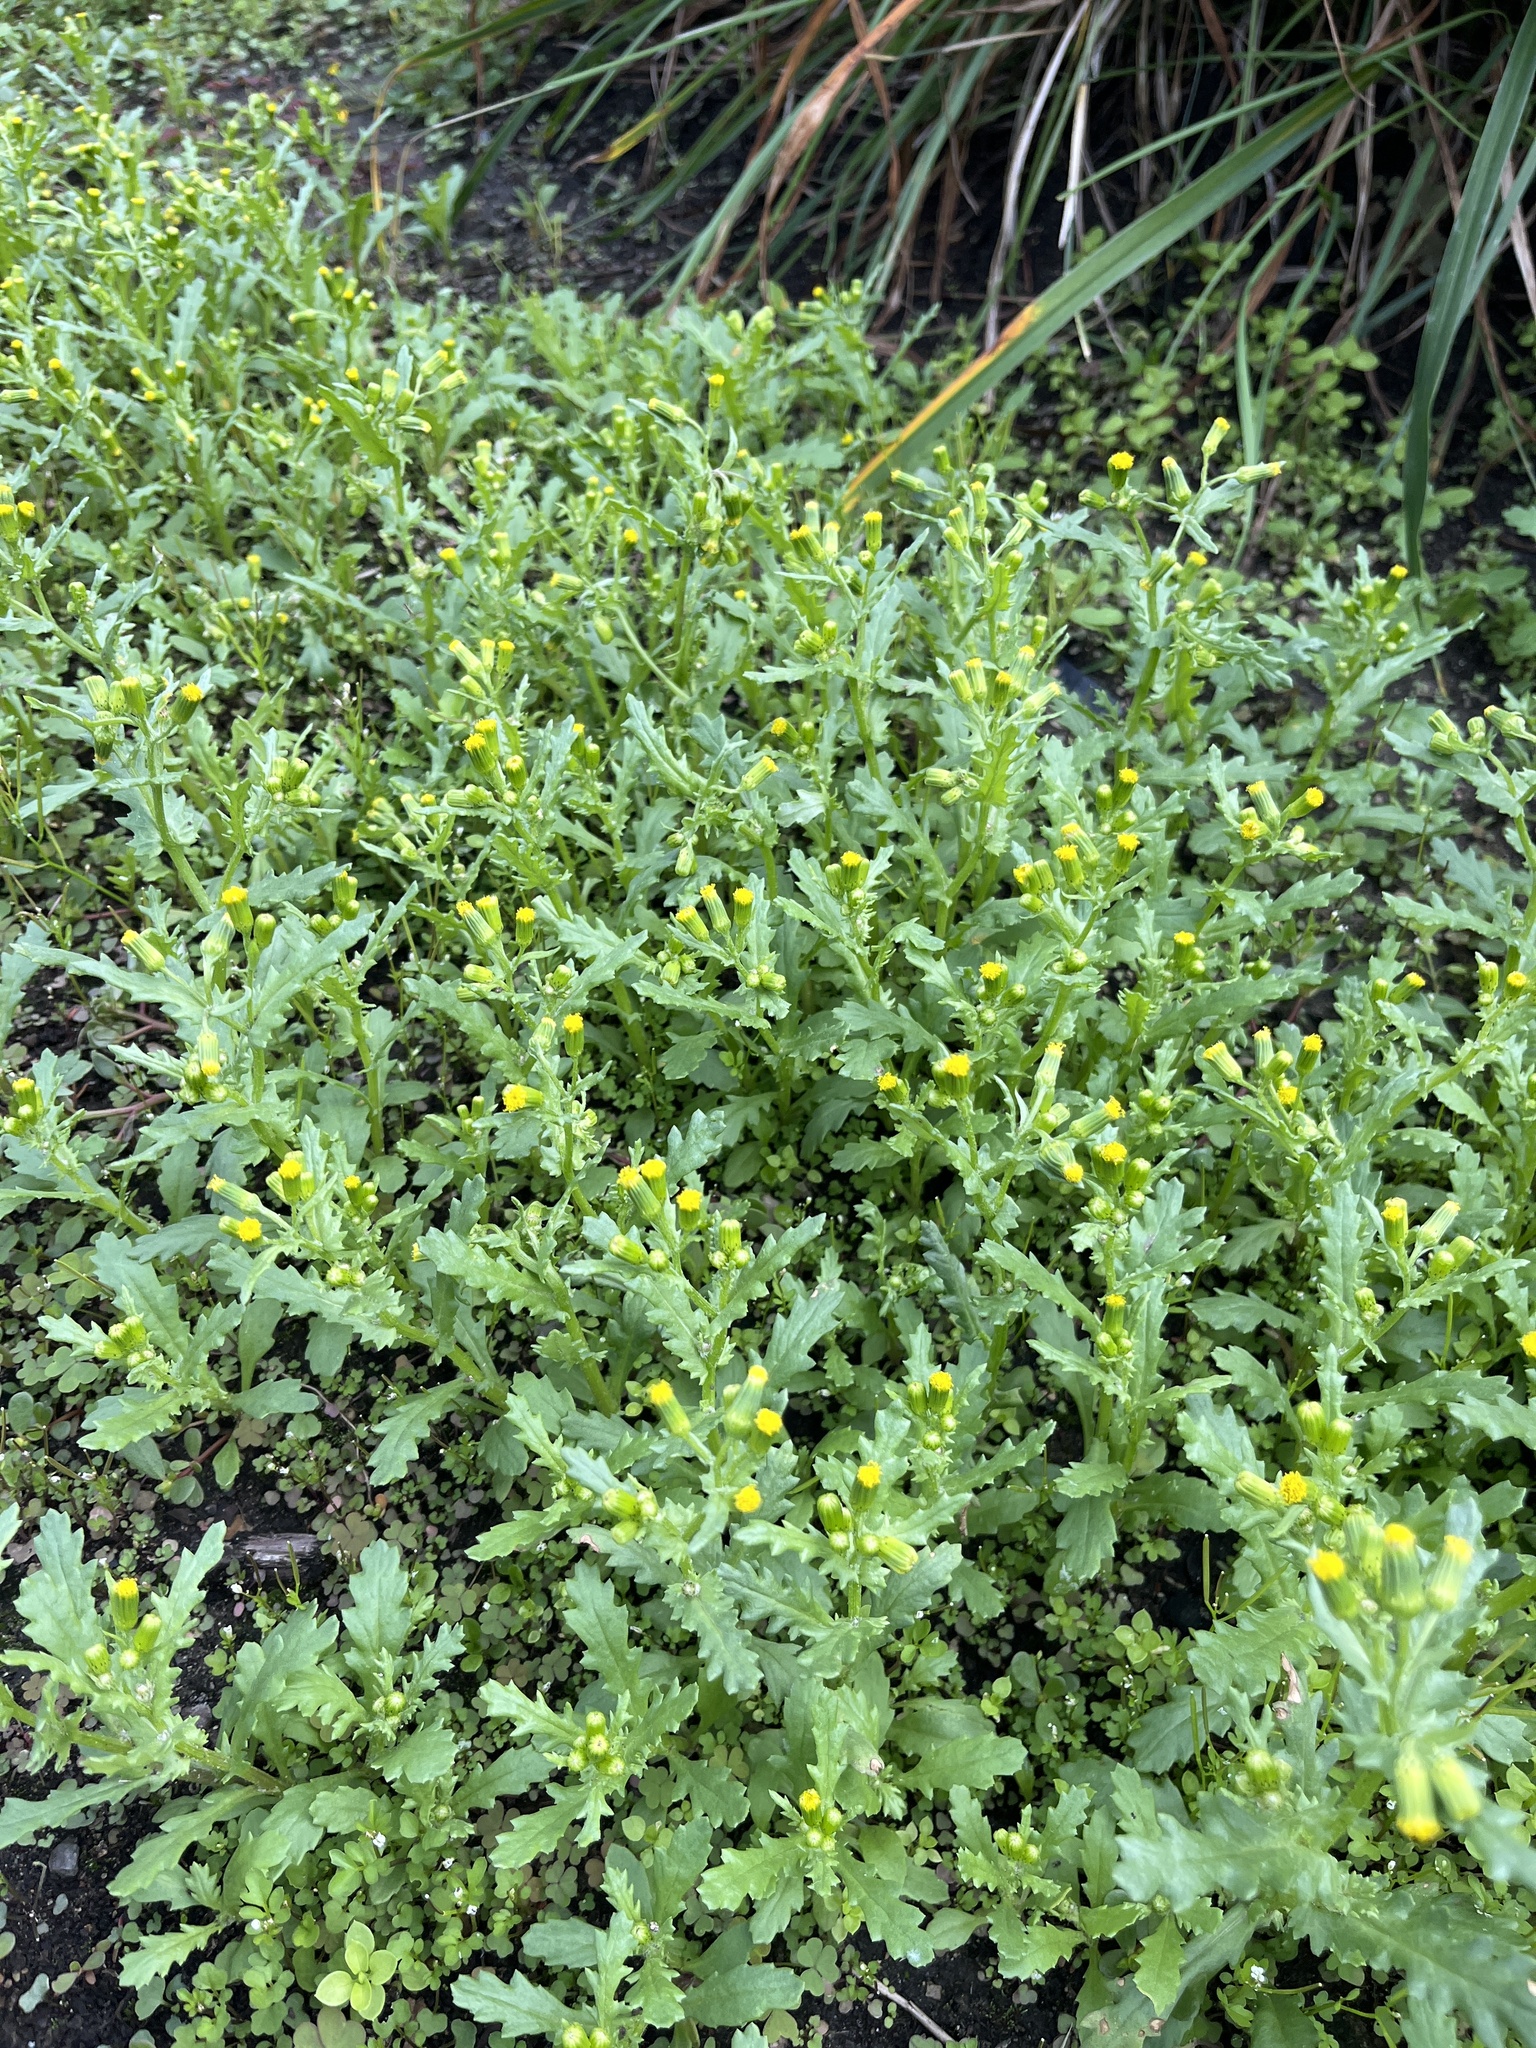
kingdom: Plantae
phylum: Tracheophyta
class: Magnoliopsida
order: Asterales
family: Asteraceae
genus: Senecio
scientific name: Senecio vulgaris
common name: Old-man-in-the-spring
